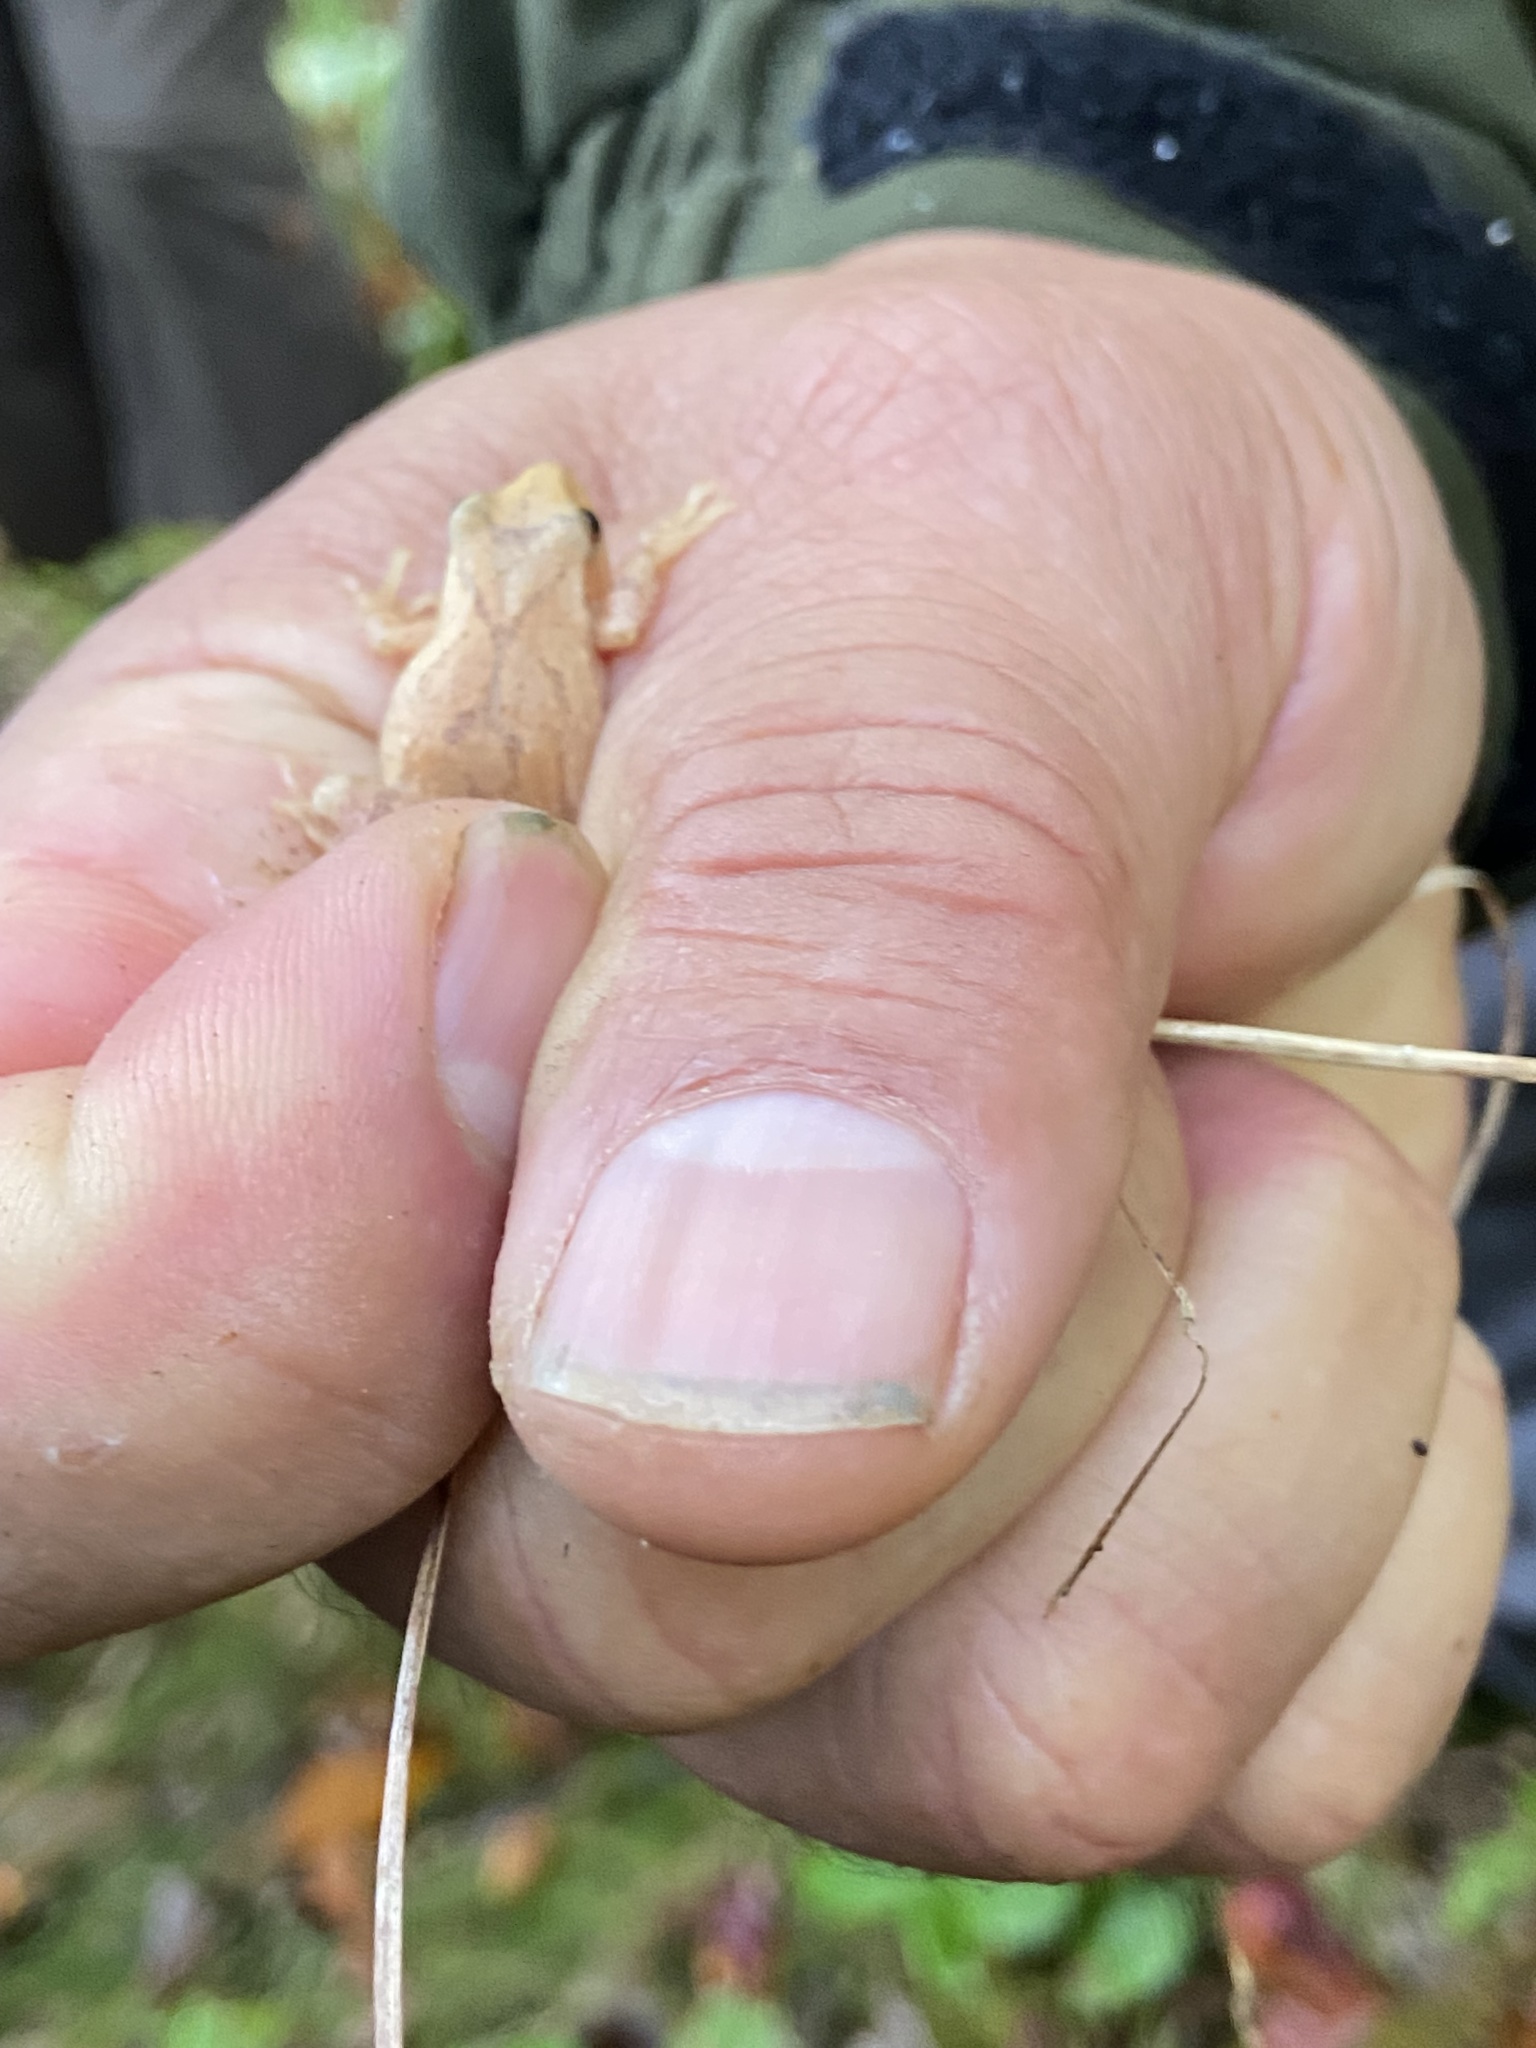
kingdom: Animalia
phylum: Chordata
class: Amphibia
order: Anura
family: Hylidae
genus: Pseudacris
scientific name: Pseudacris crucifer
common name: Spring peeper
